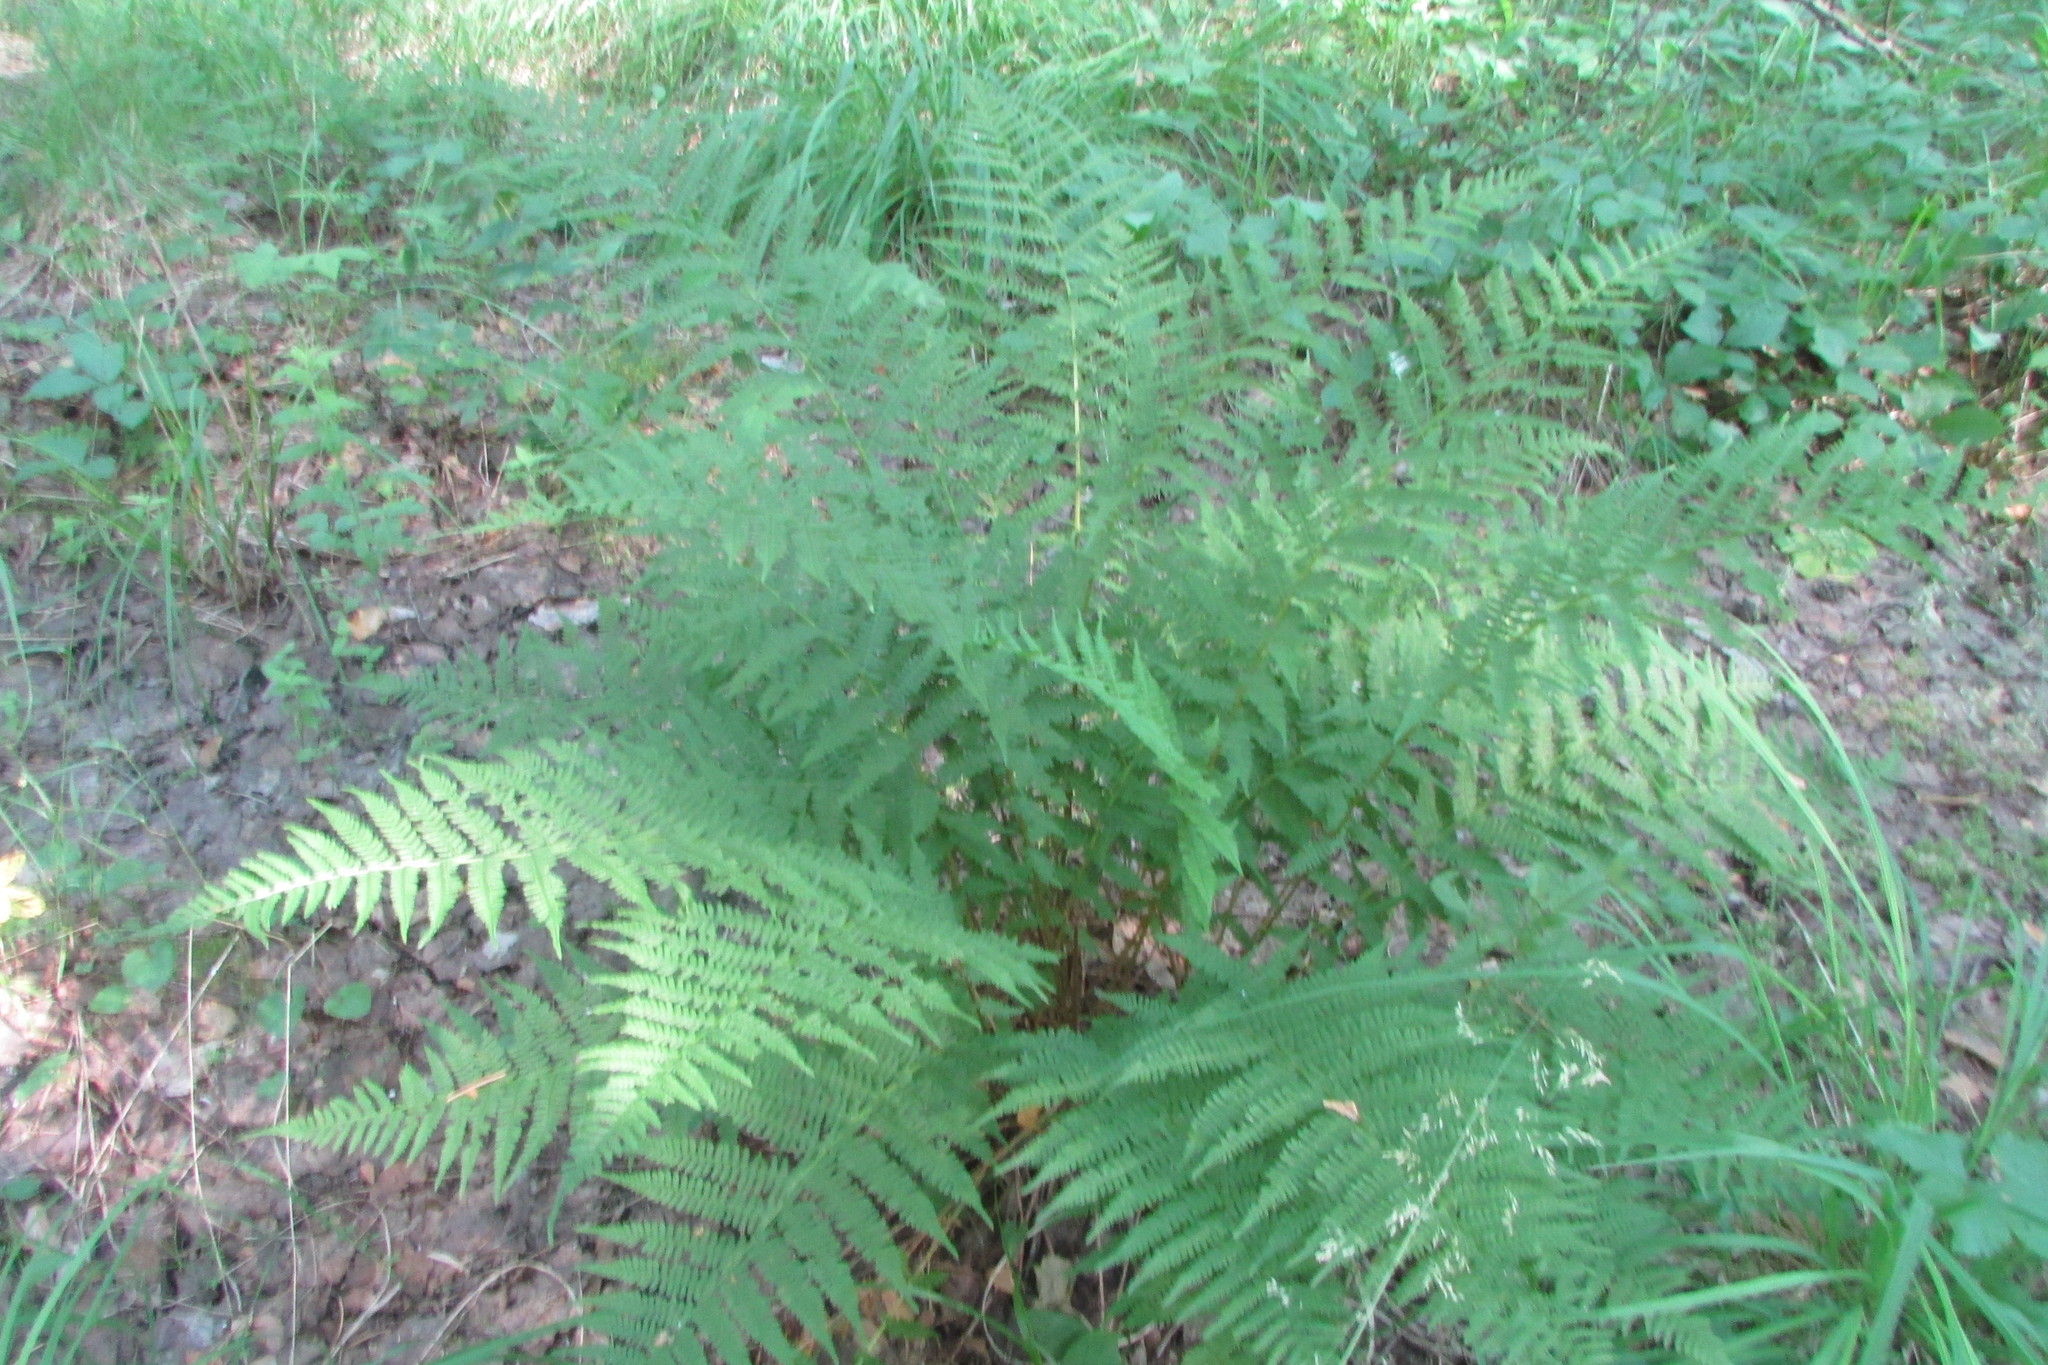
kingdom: Plantae
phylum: Tracheophyta
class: Polypodiopsida
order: Polypodiales
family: Athyriaceae
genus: Athyrium
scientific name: Athyrium filix-femina
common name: Lady fern
